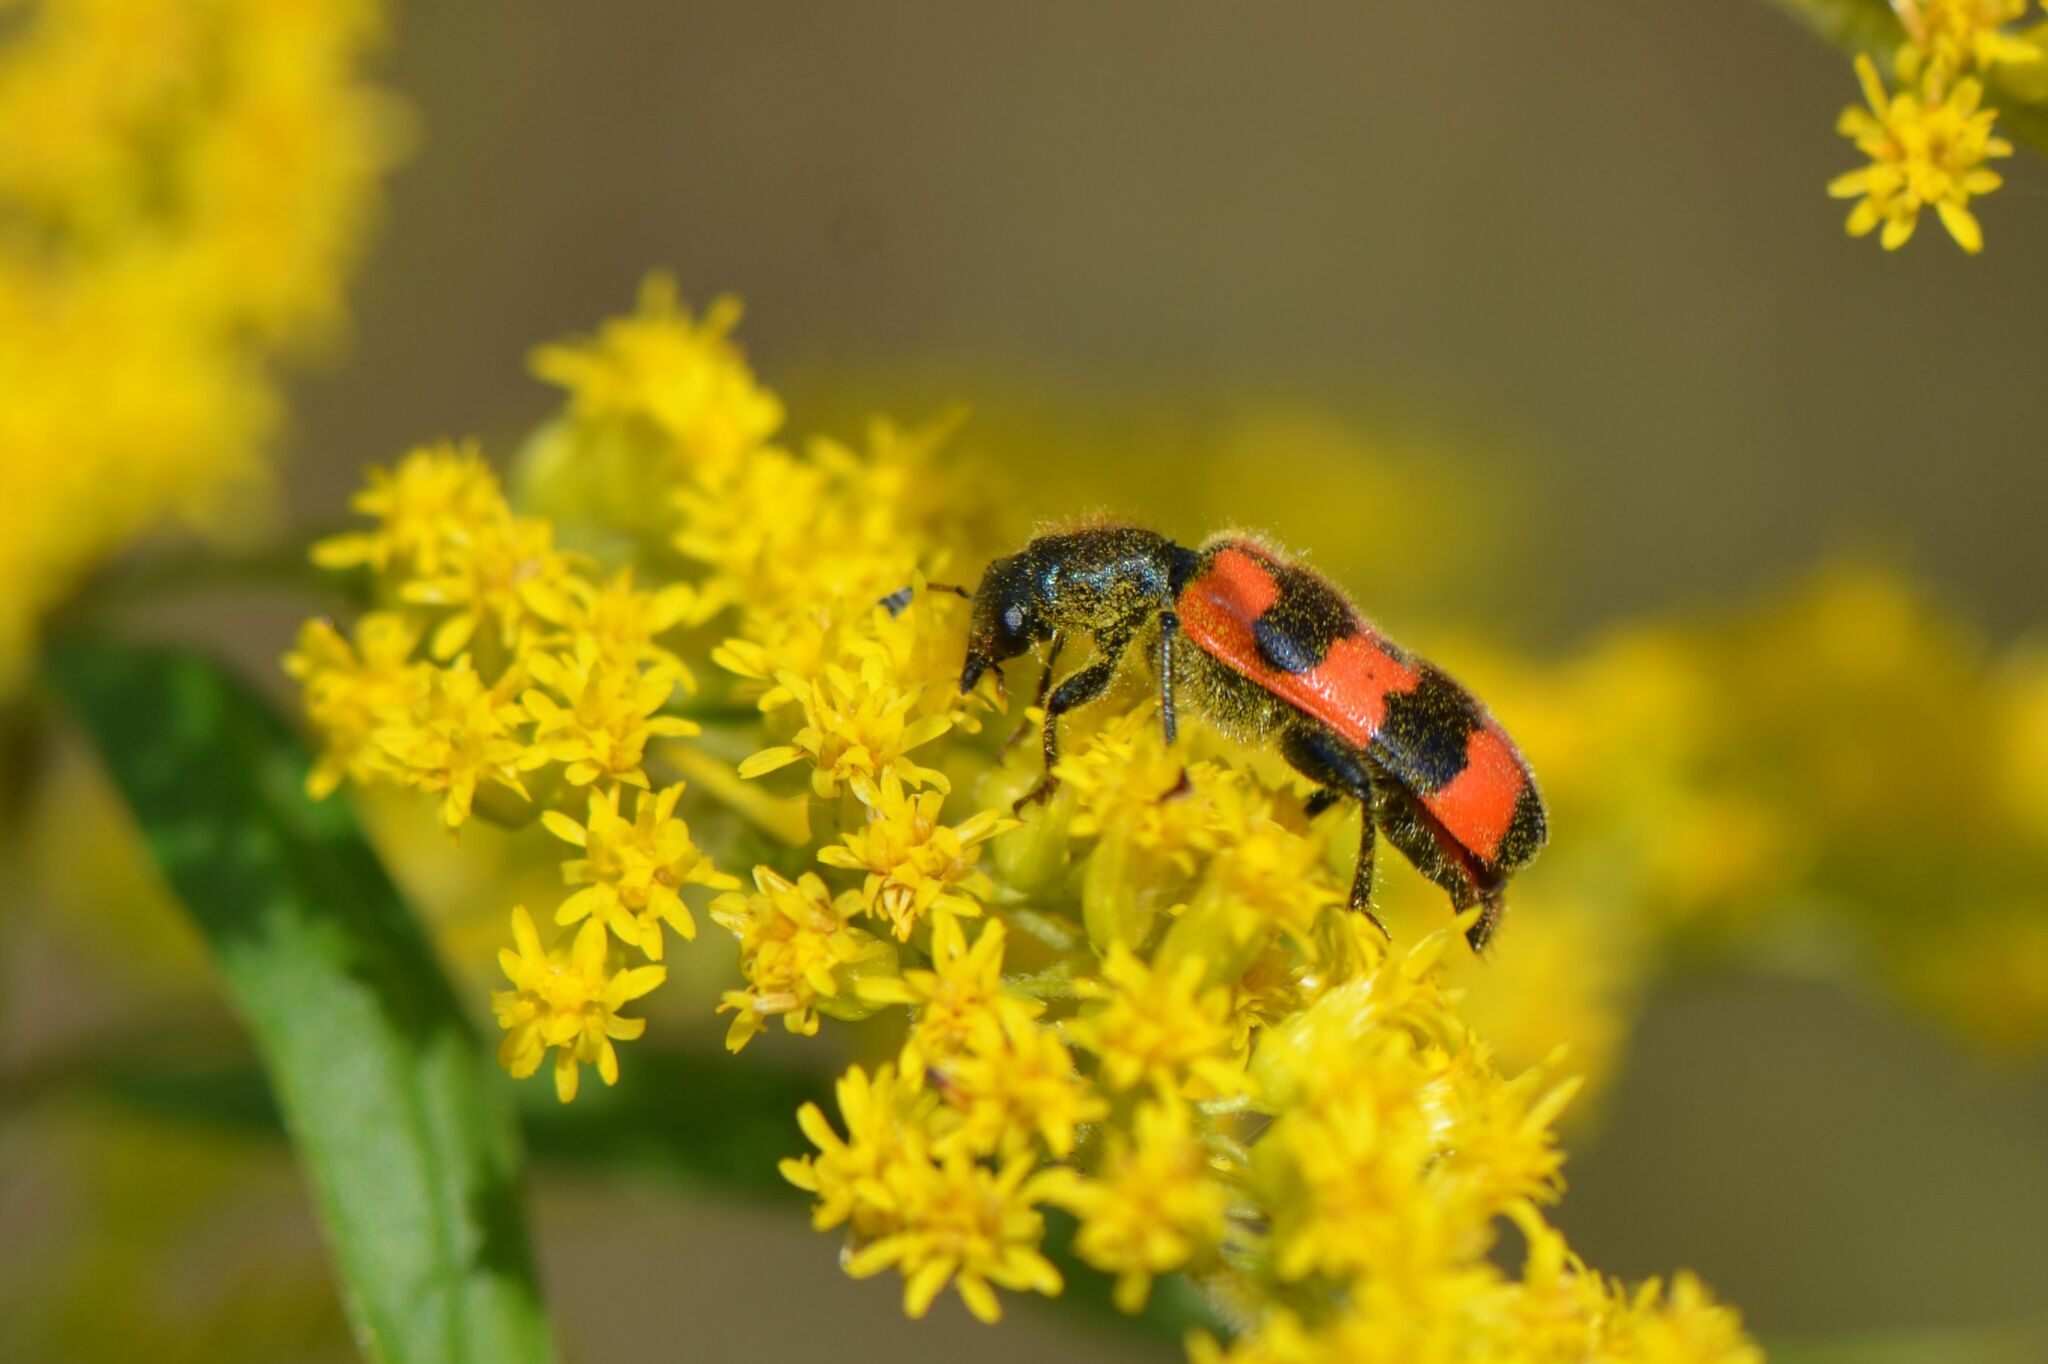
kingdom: Animalia
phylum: Arthropoda
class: Insecta
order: Coleoptera
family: Cleridae
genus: Trichodes
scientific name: Trichodes apiarius
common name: Bee-eating beetle
